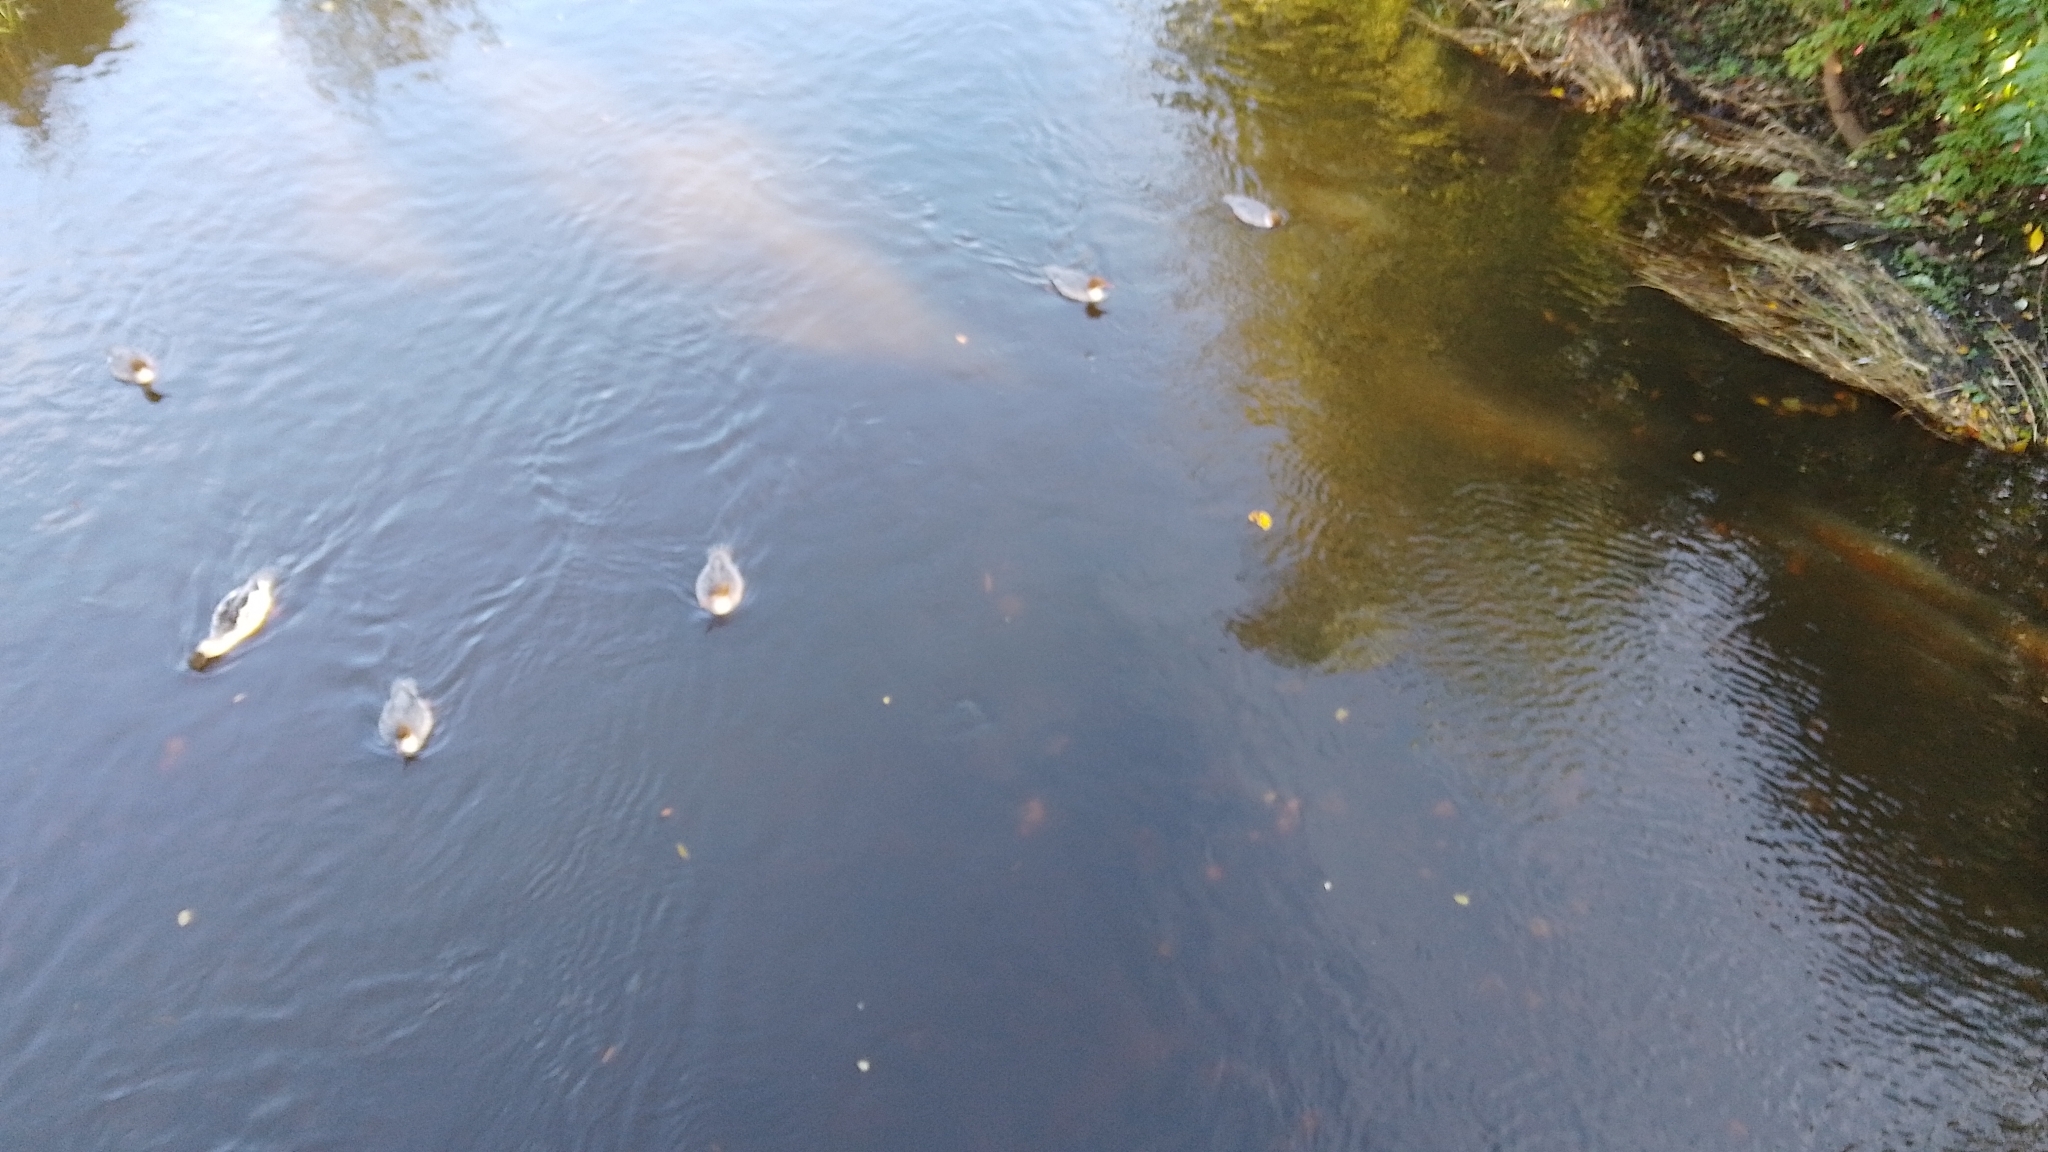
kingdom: Animalia
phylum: Chordata
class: Aves
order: Anseriformes
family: Anatidae
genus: Mergus
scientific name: Mergus merganser
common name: Common merganser
